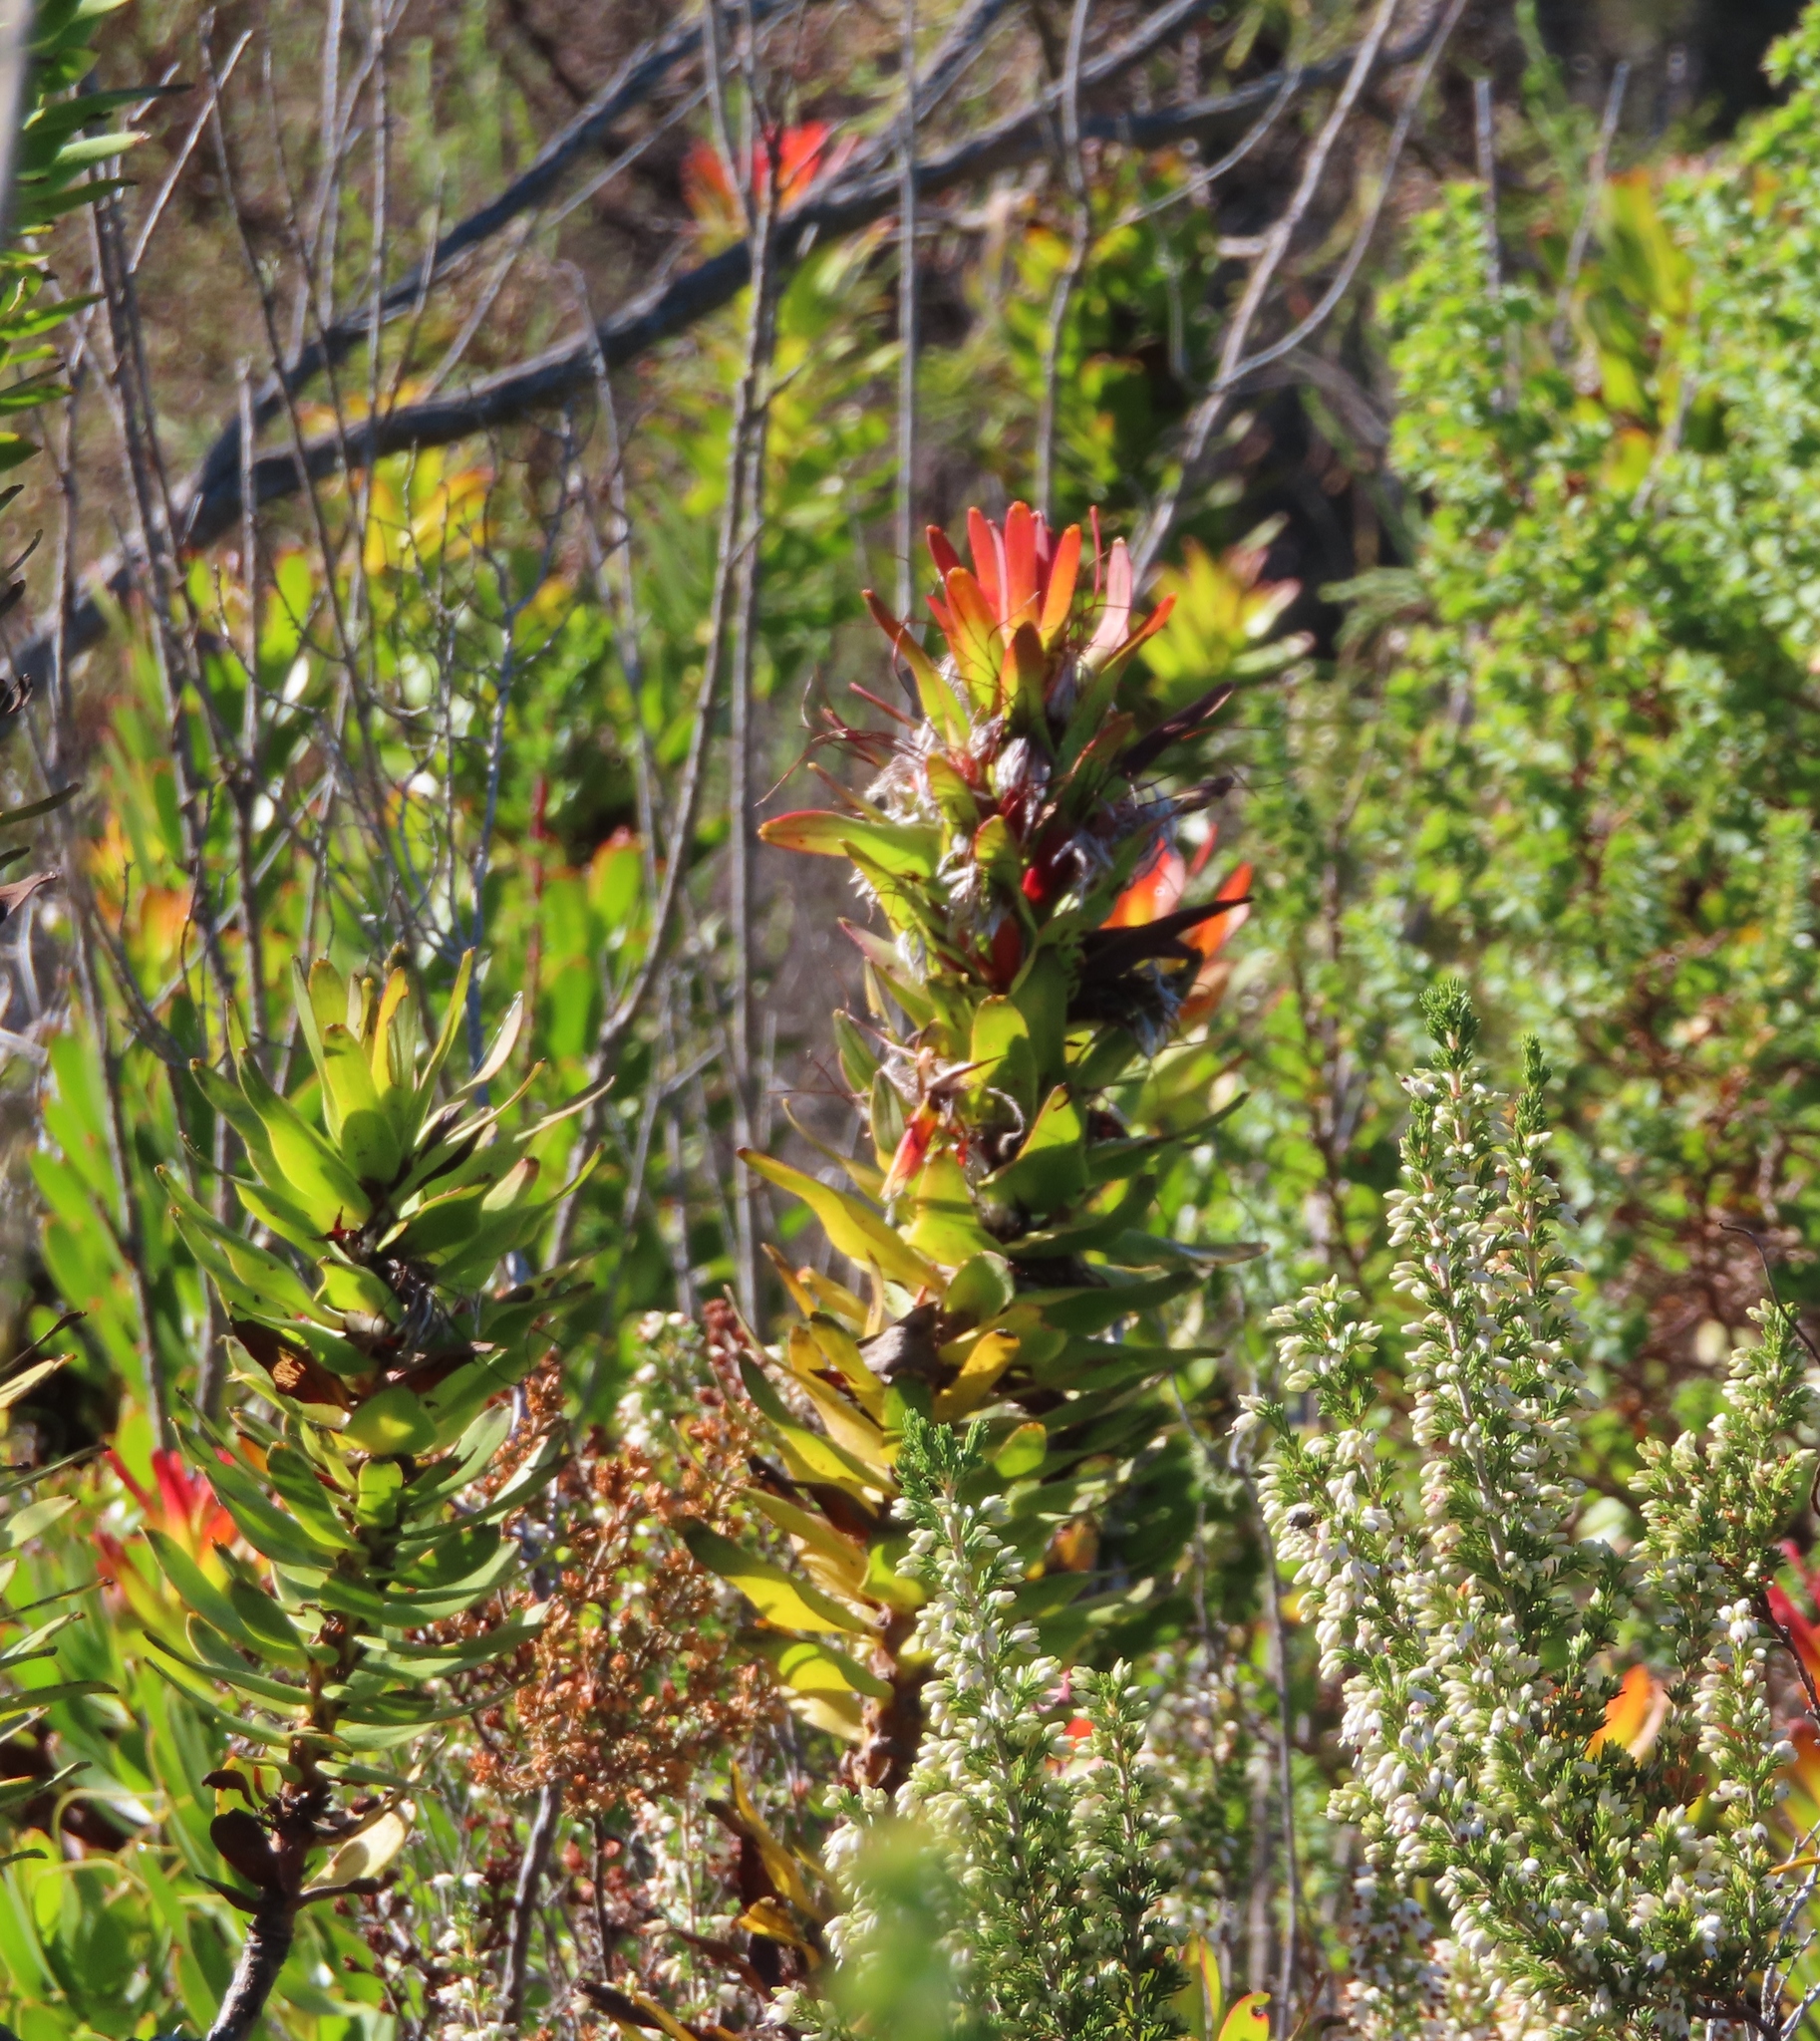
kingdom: Plantae
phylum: Tracheophyta
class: Magnoliopsida
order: Proteales
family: Proteaceae
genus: Mimetes
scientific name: Mimetes cucullatus
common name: Common pagoda
